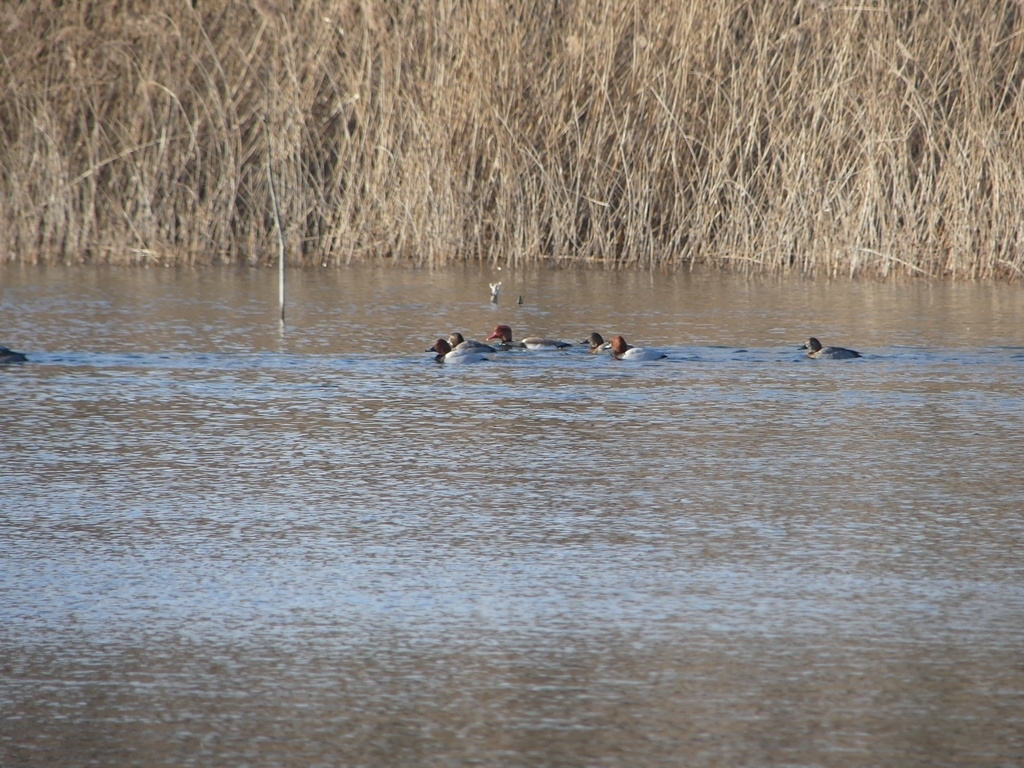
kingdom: Animalia
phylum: Chordata
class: Aves
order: Anseriformes
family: Anatidae
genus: Netta
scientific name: Netta rufina
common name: Red-crested pochard
